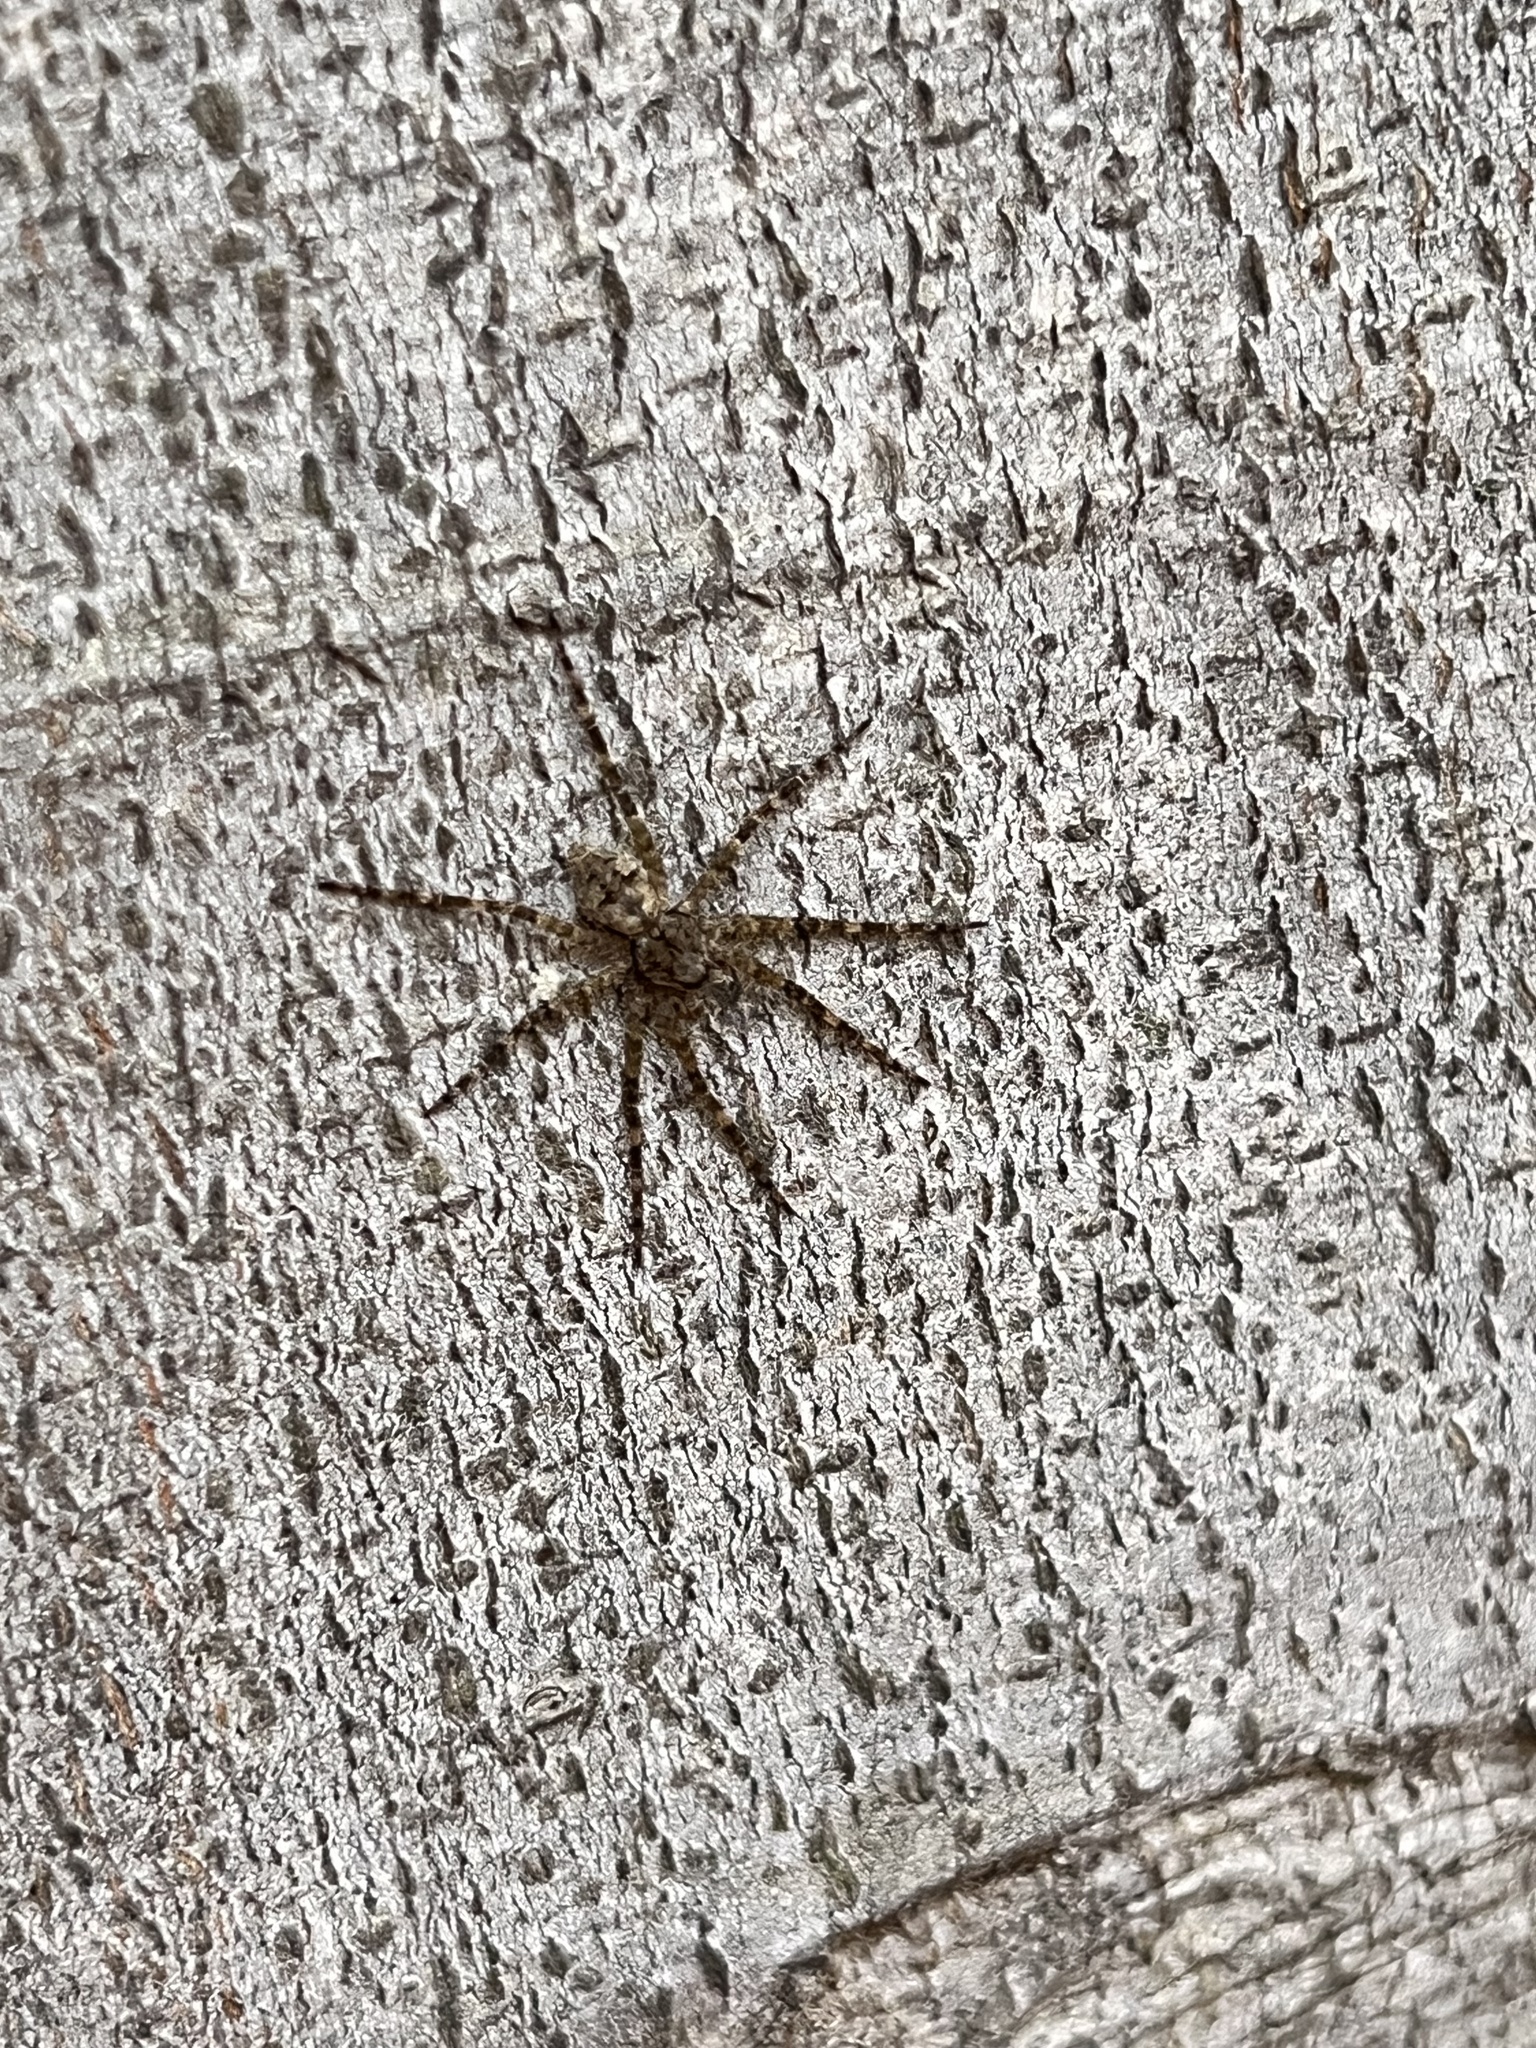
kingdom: Animalia
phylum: Arthropoda
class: Arachnida
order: Araneae
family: Pisauridae
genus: Dolomedes
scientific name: Dolomedes albineus
